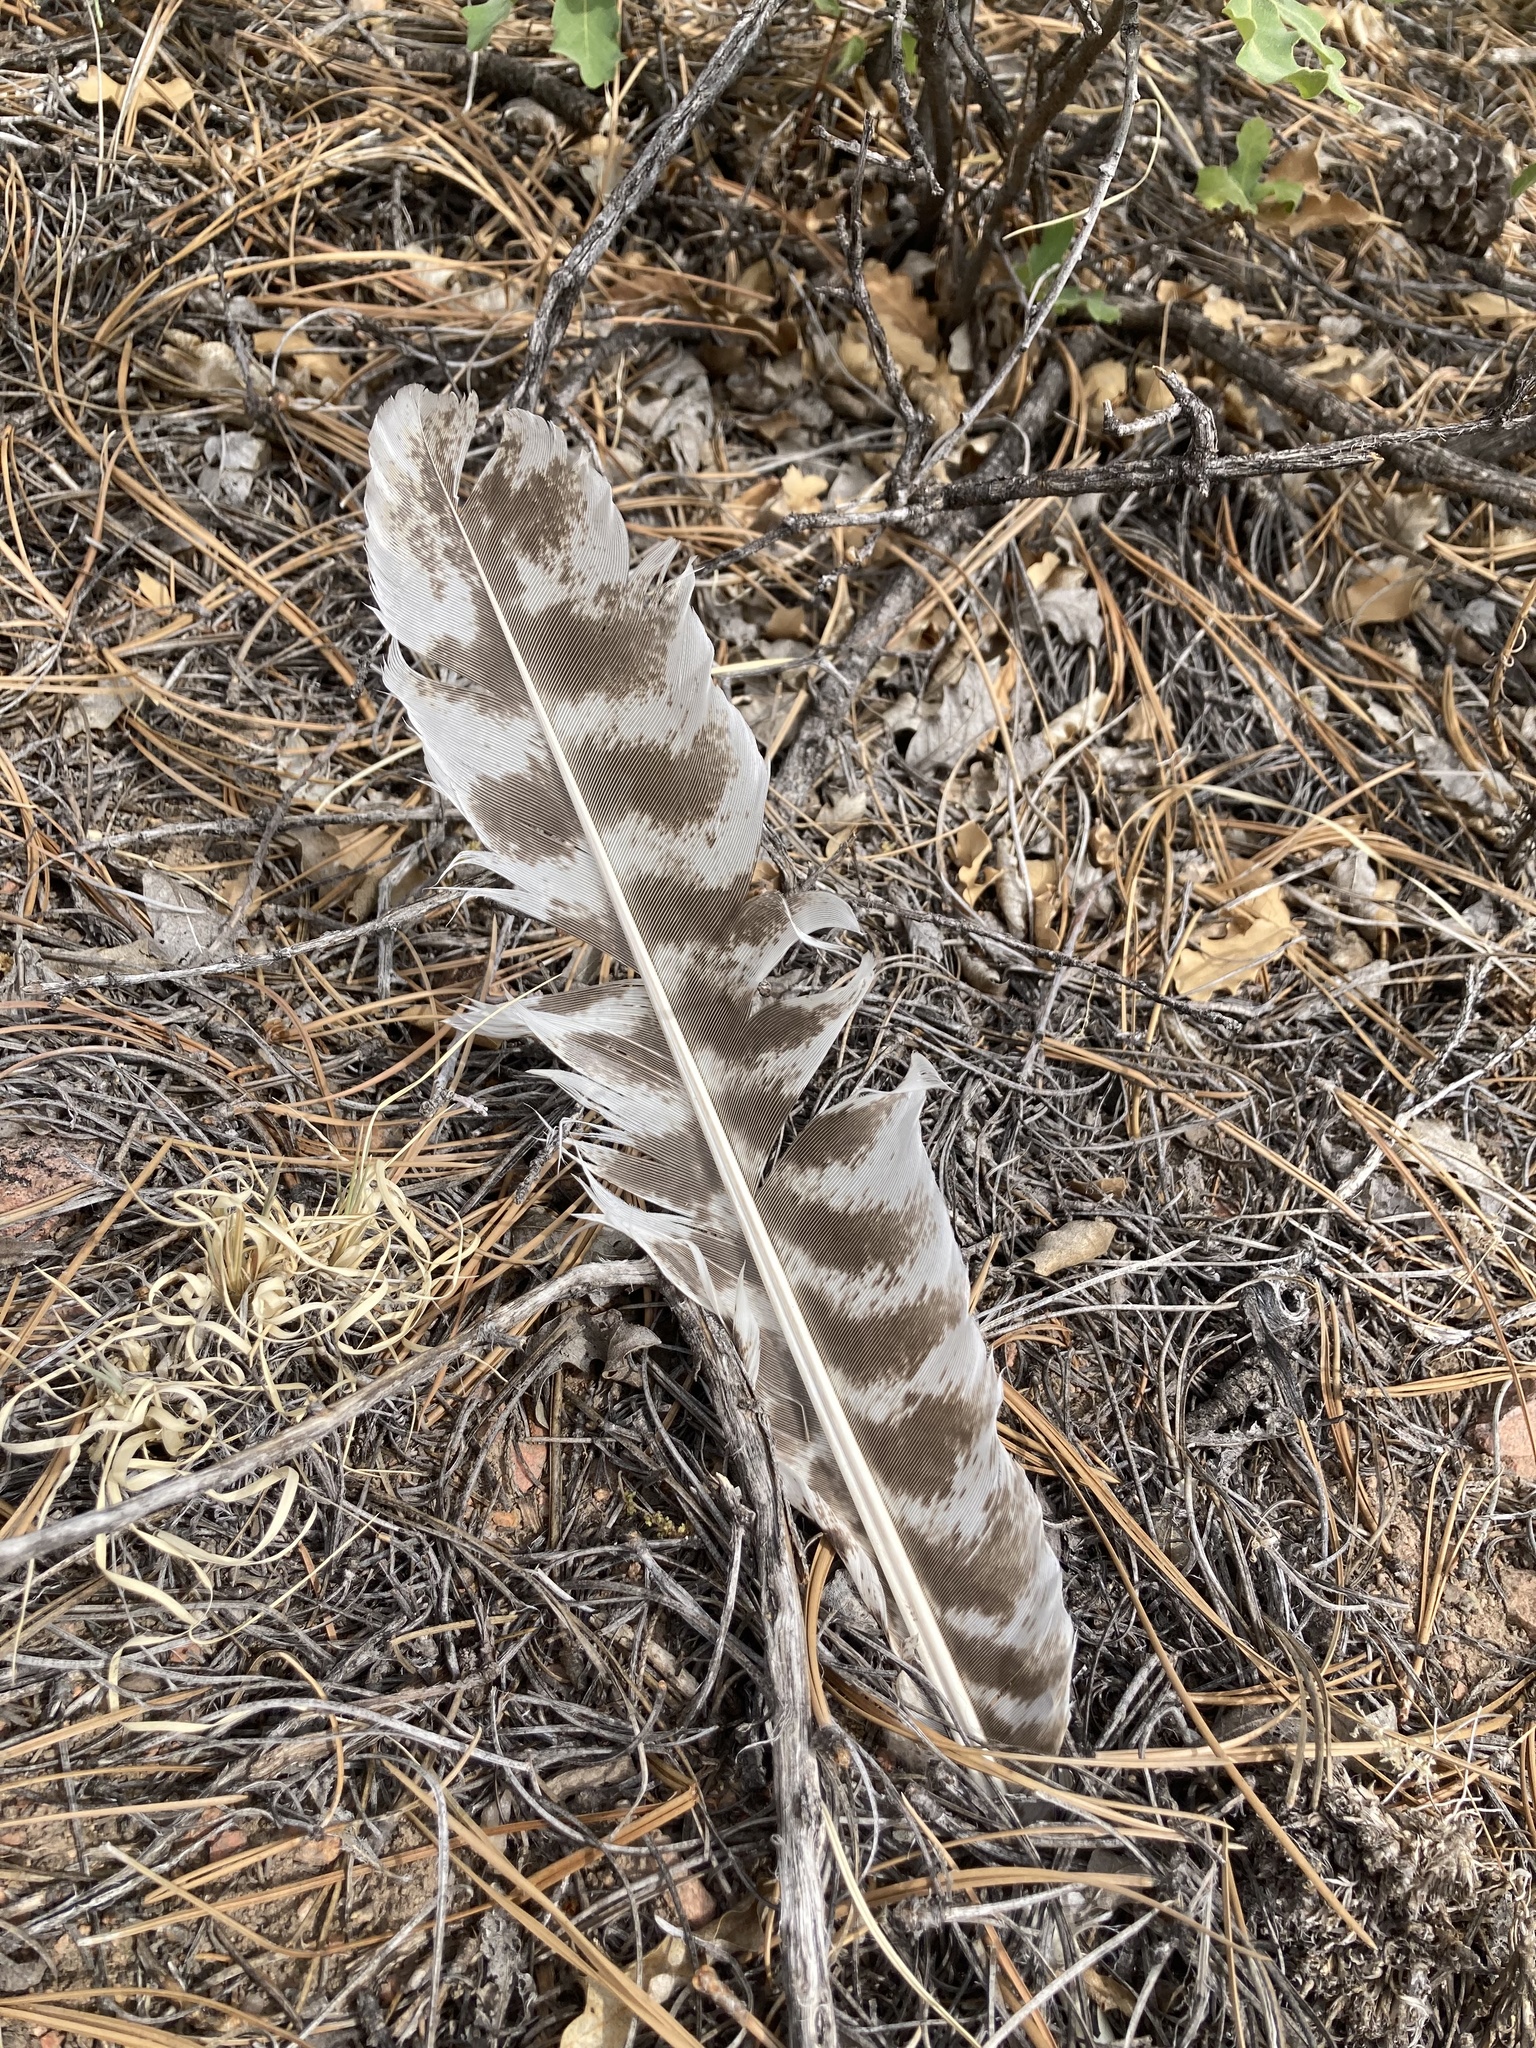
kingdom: Animalia
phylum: Chordata
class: Aves
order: Galliformes
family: Phasianidae
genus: Meleagris
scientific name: Meleagris gallopavo
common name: Wild turkey
